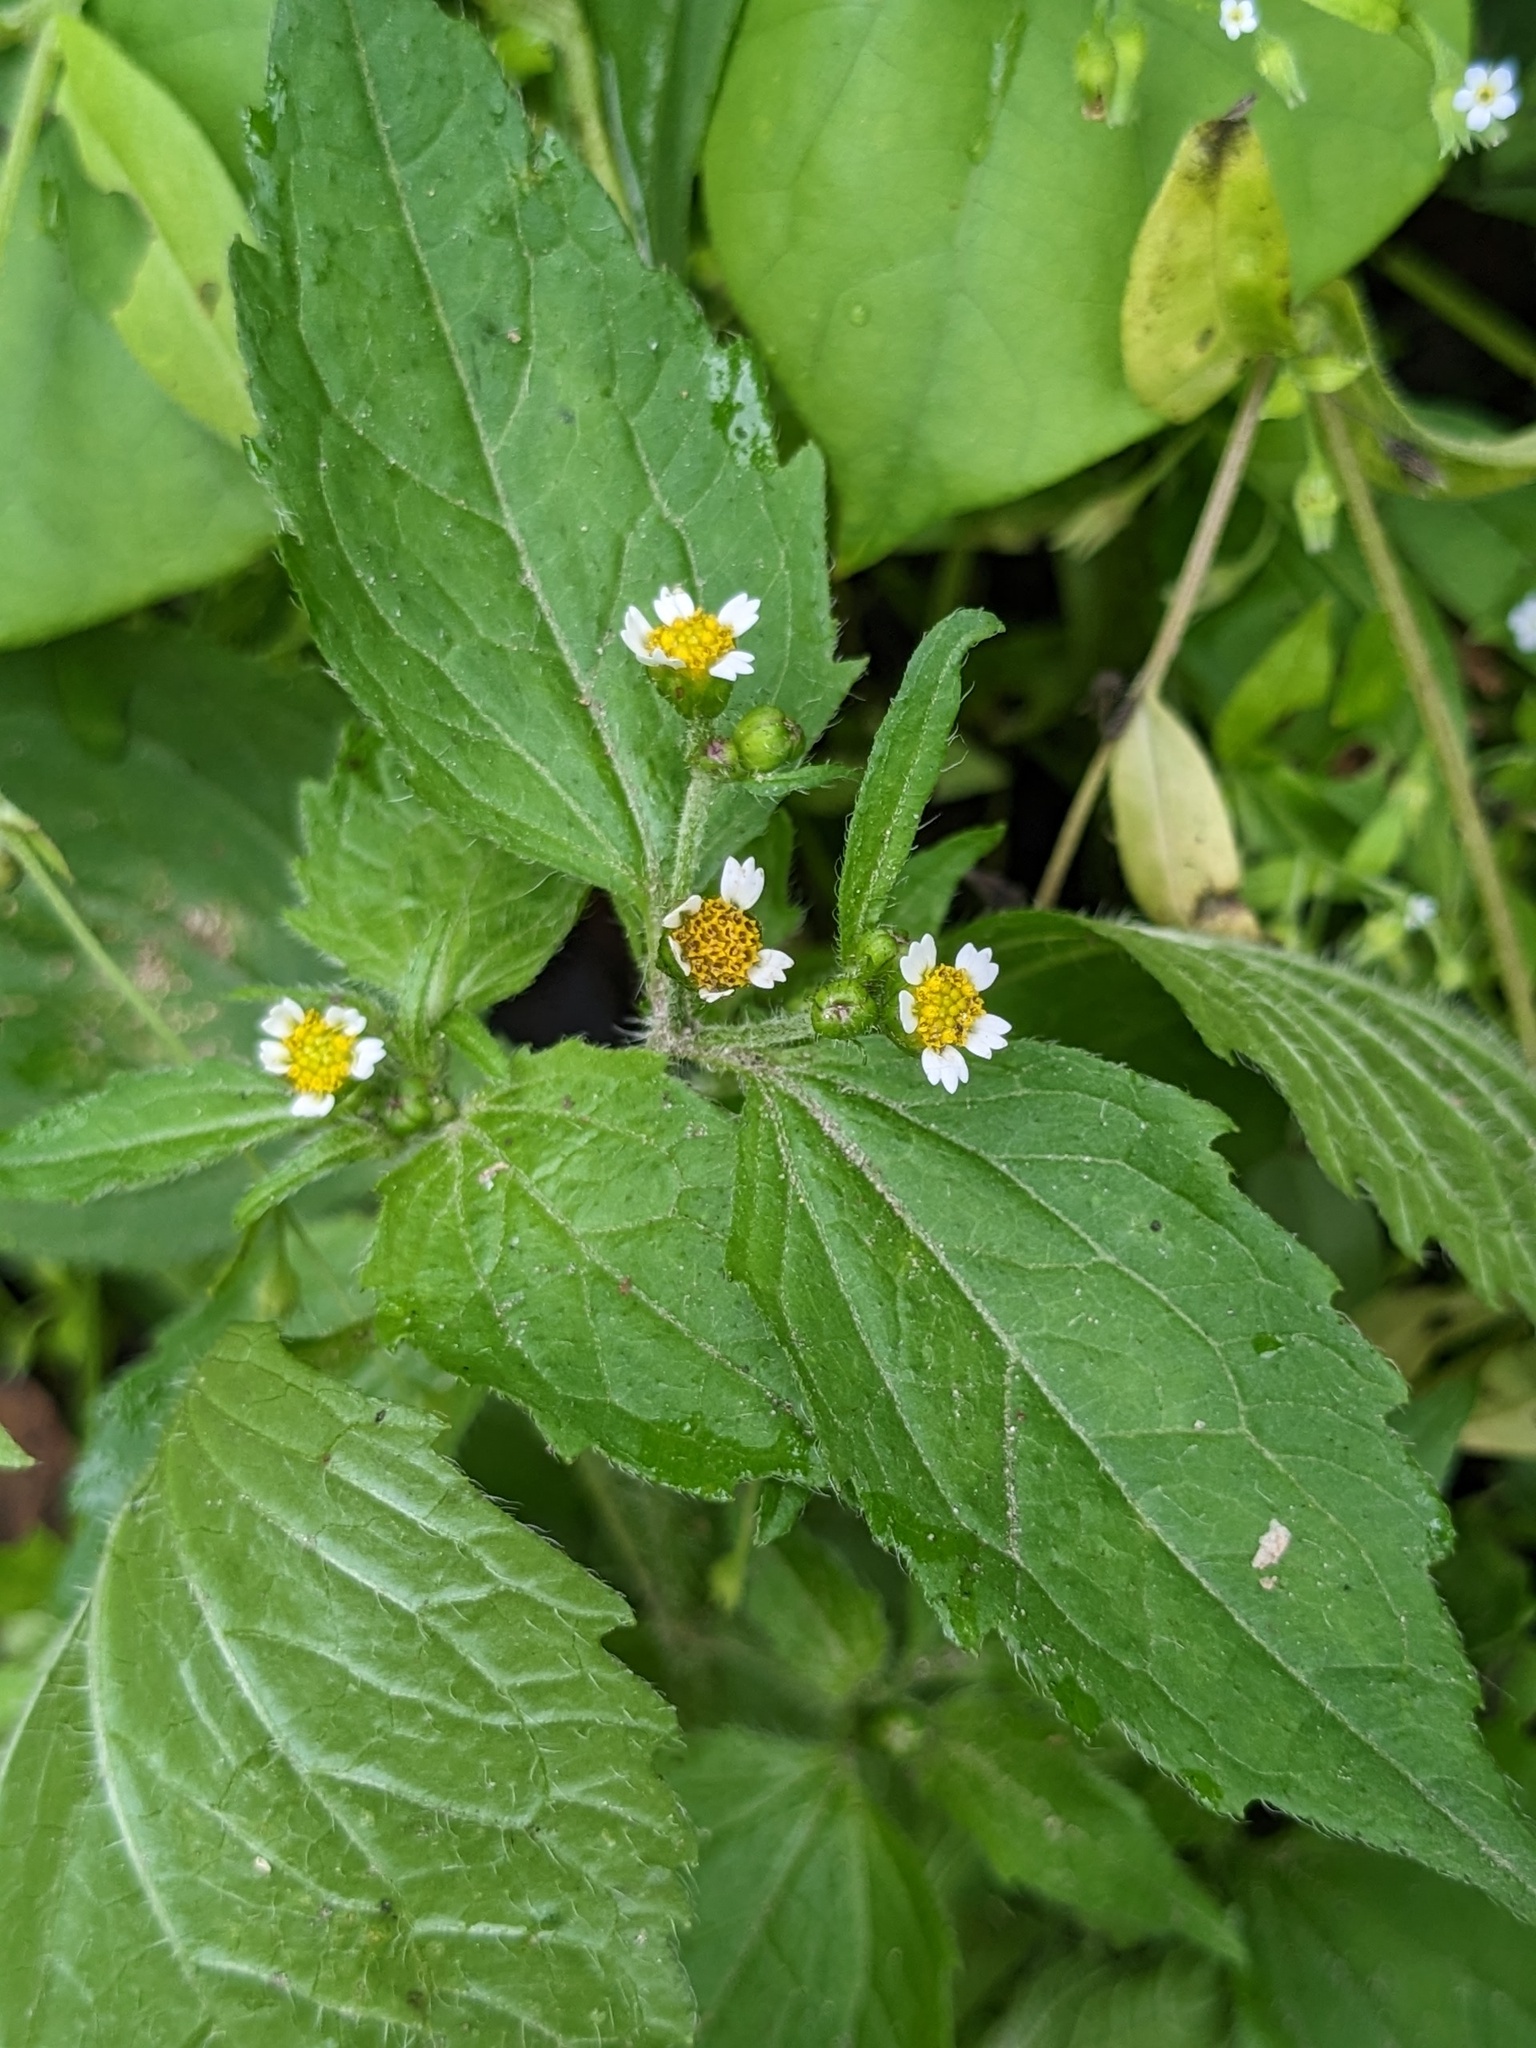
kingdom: Plantae
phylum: Tracheophyta
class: Magnoliopsida
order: Asterales
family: Asteraceae
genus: Galinsoga
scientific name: Galinsoga quadriradiata
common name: Shaggy soldier
